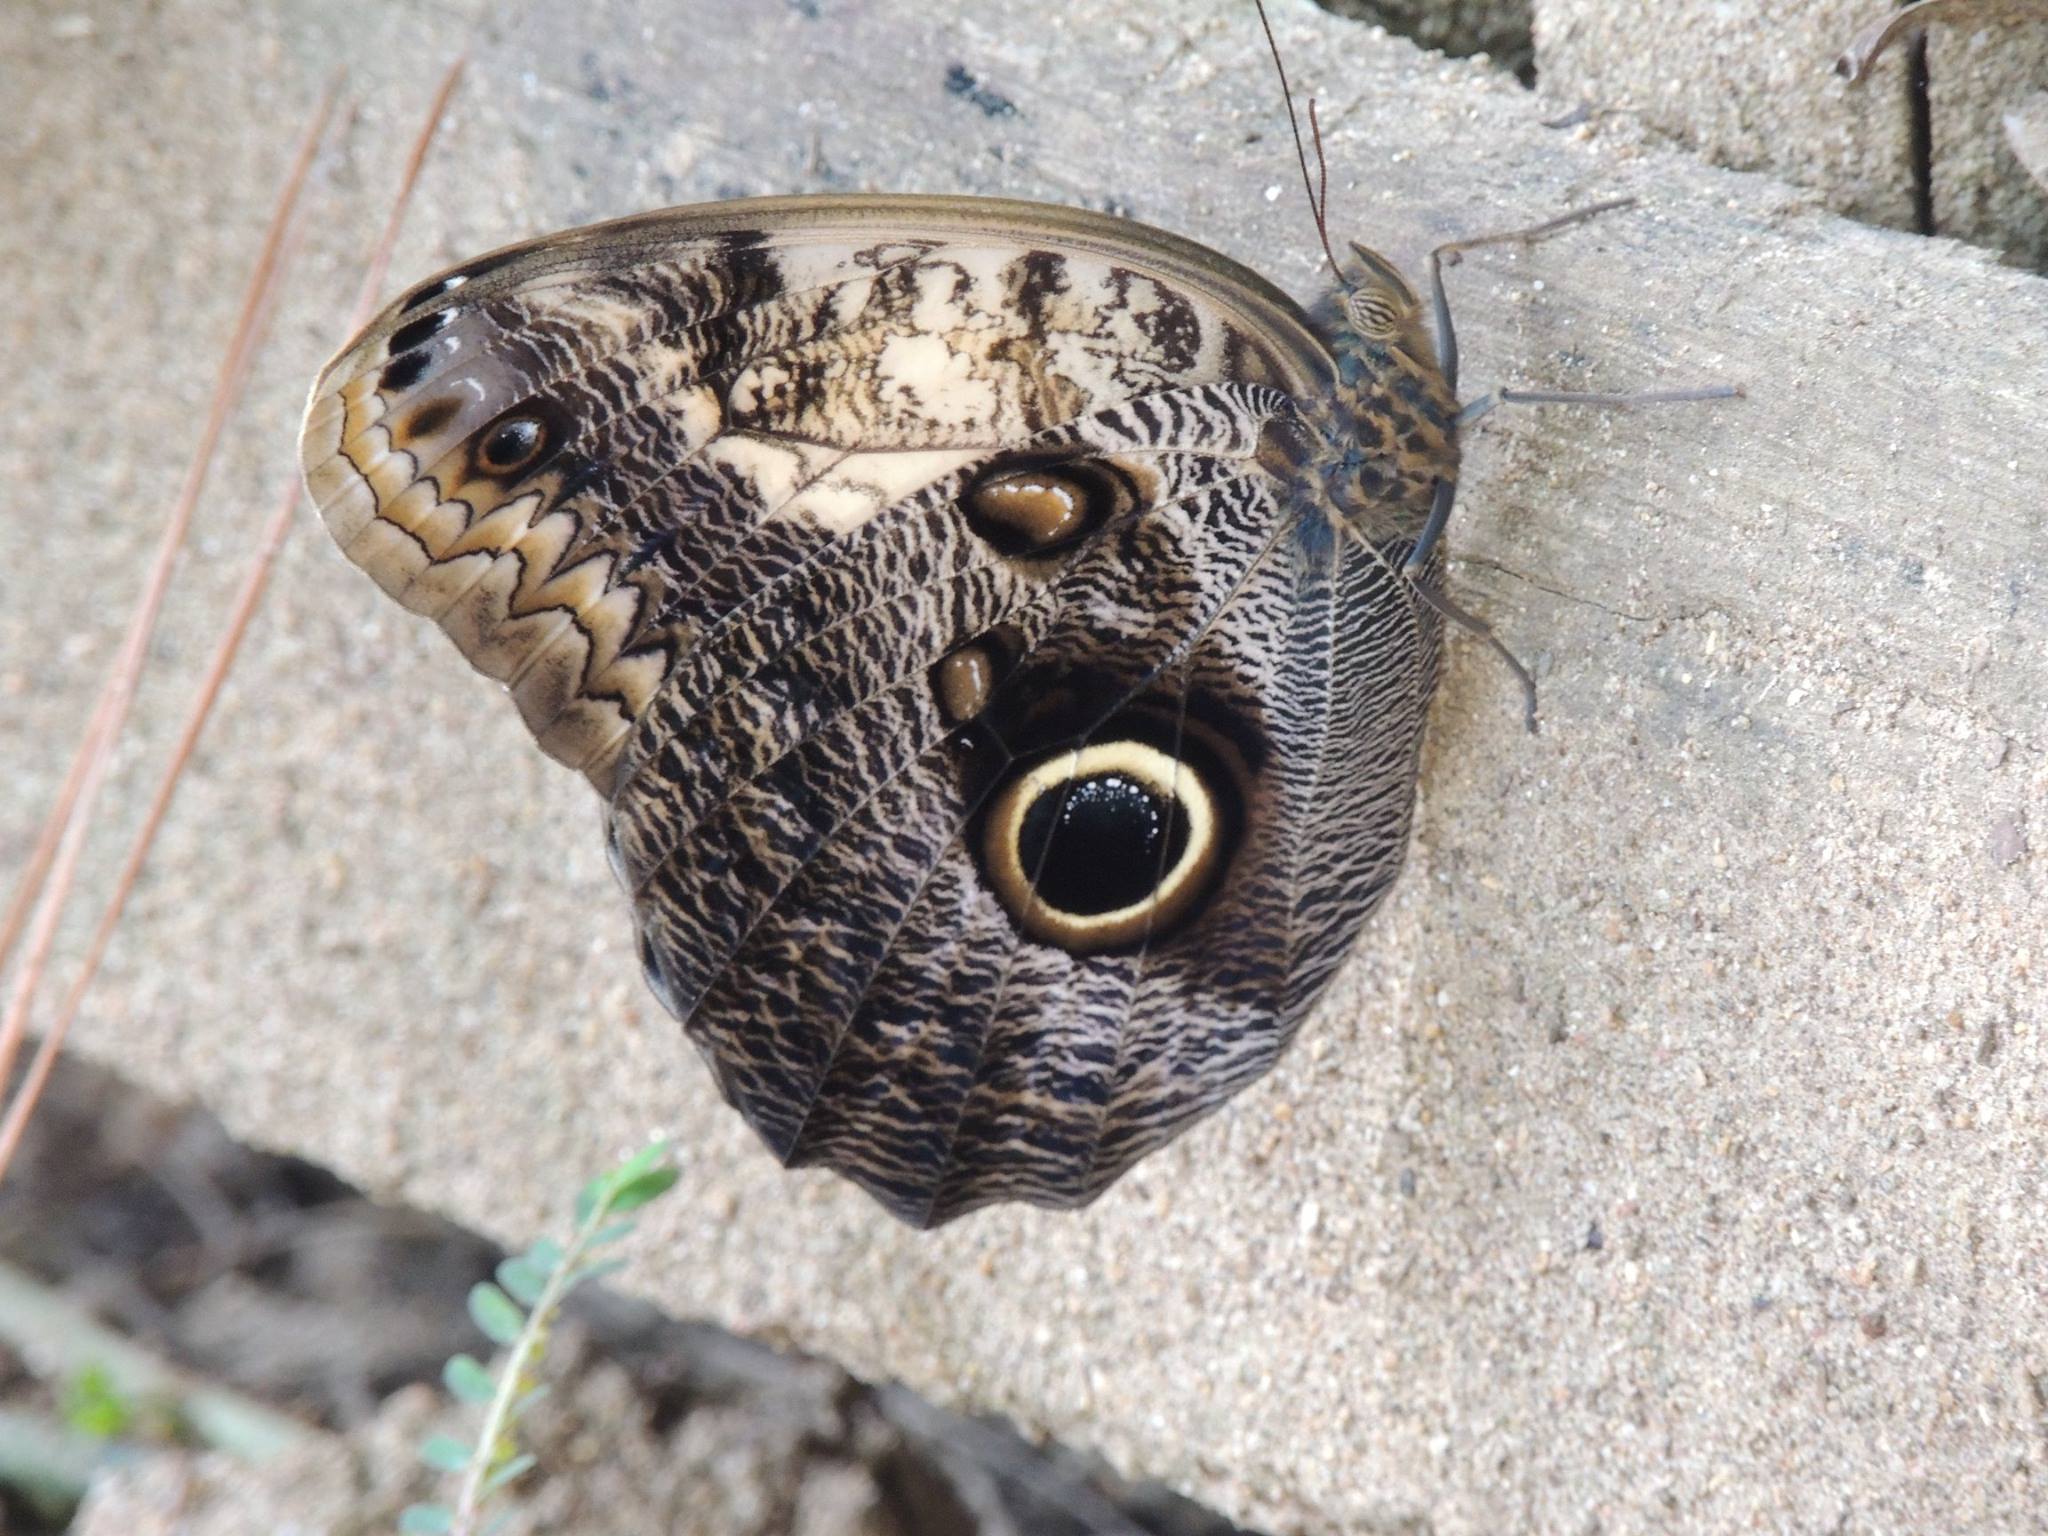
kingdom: Animalia
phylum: Arthropoda
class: Insecta
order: Lepidoptera
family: Nymphalidae
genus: Caligo
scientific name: Caligo telamonius
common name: Pale owl-butterfly
